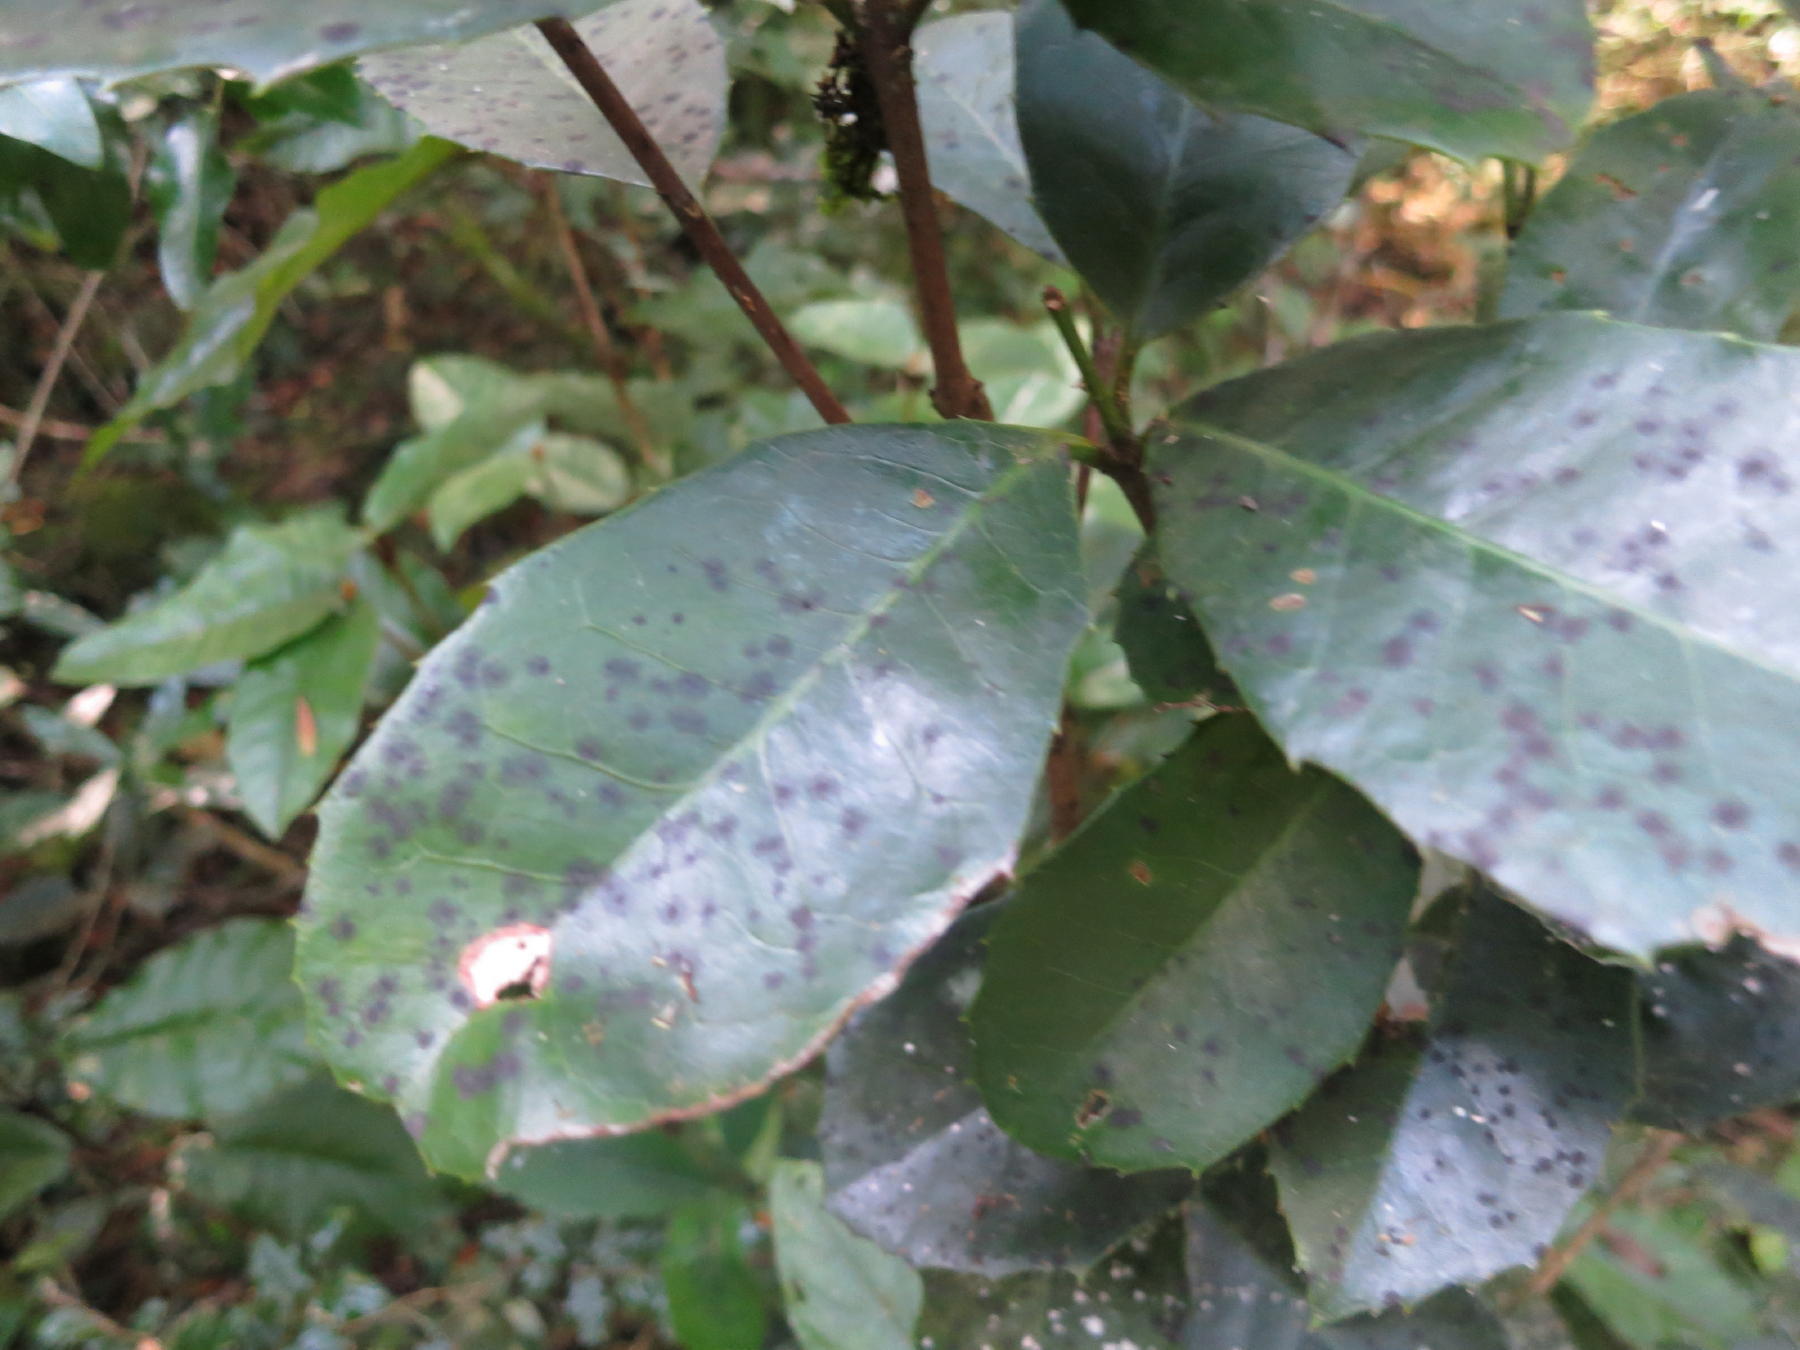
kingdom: Plantae
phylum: Tracheophyta
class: Magnoliopsida
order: Celastrales
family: Celastraceae
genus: Elaeodendron
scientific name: Elaeodendron croceum
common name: Saffron
